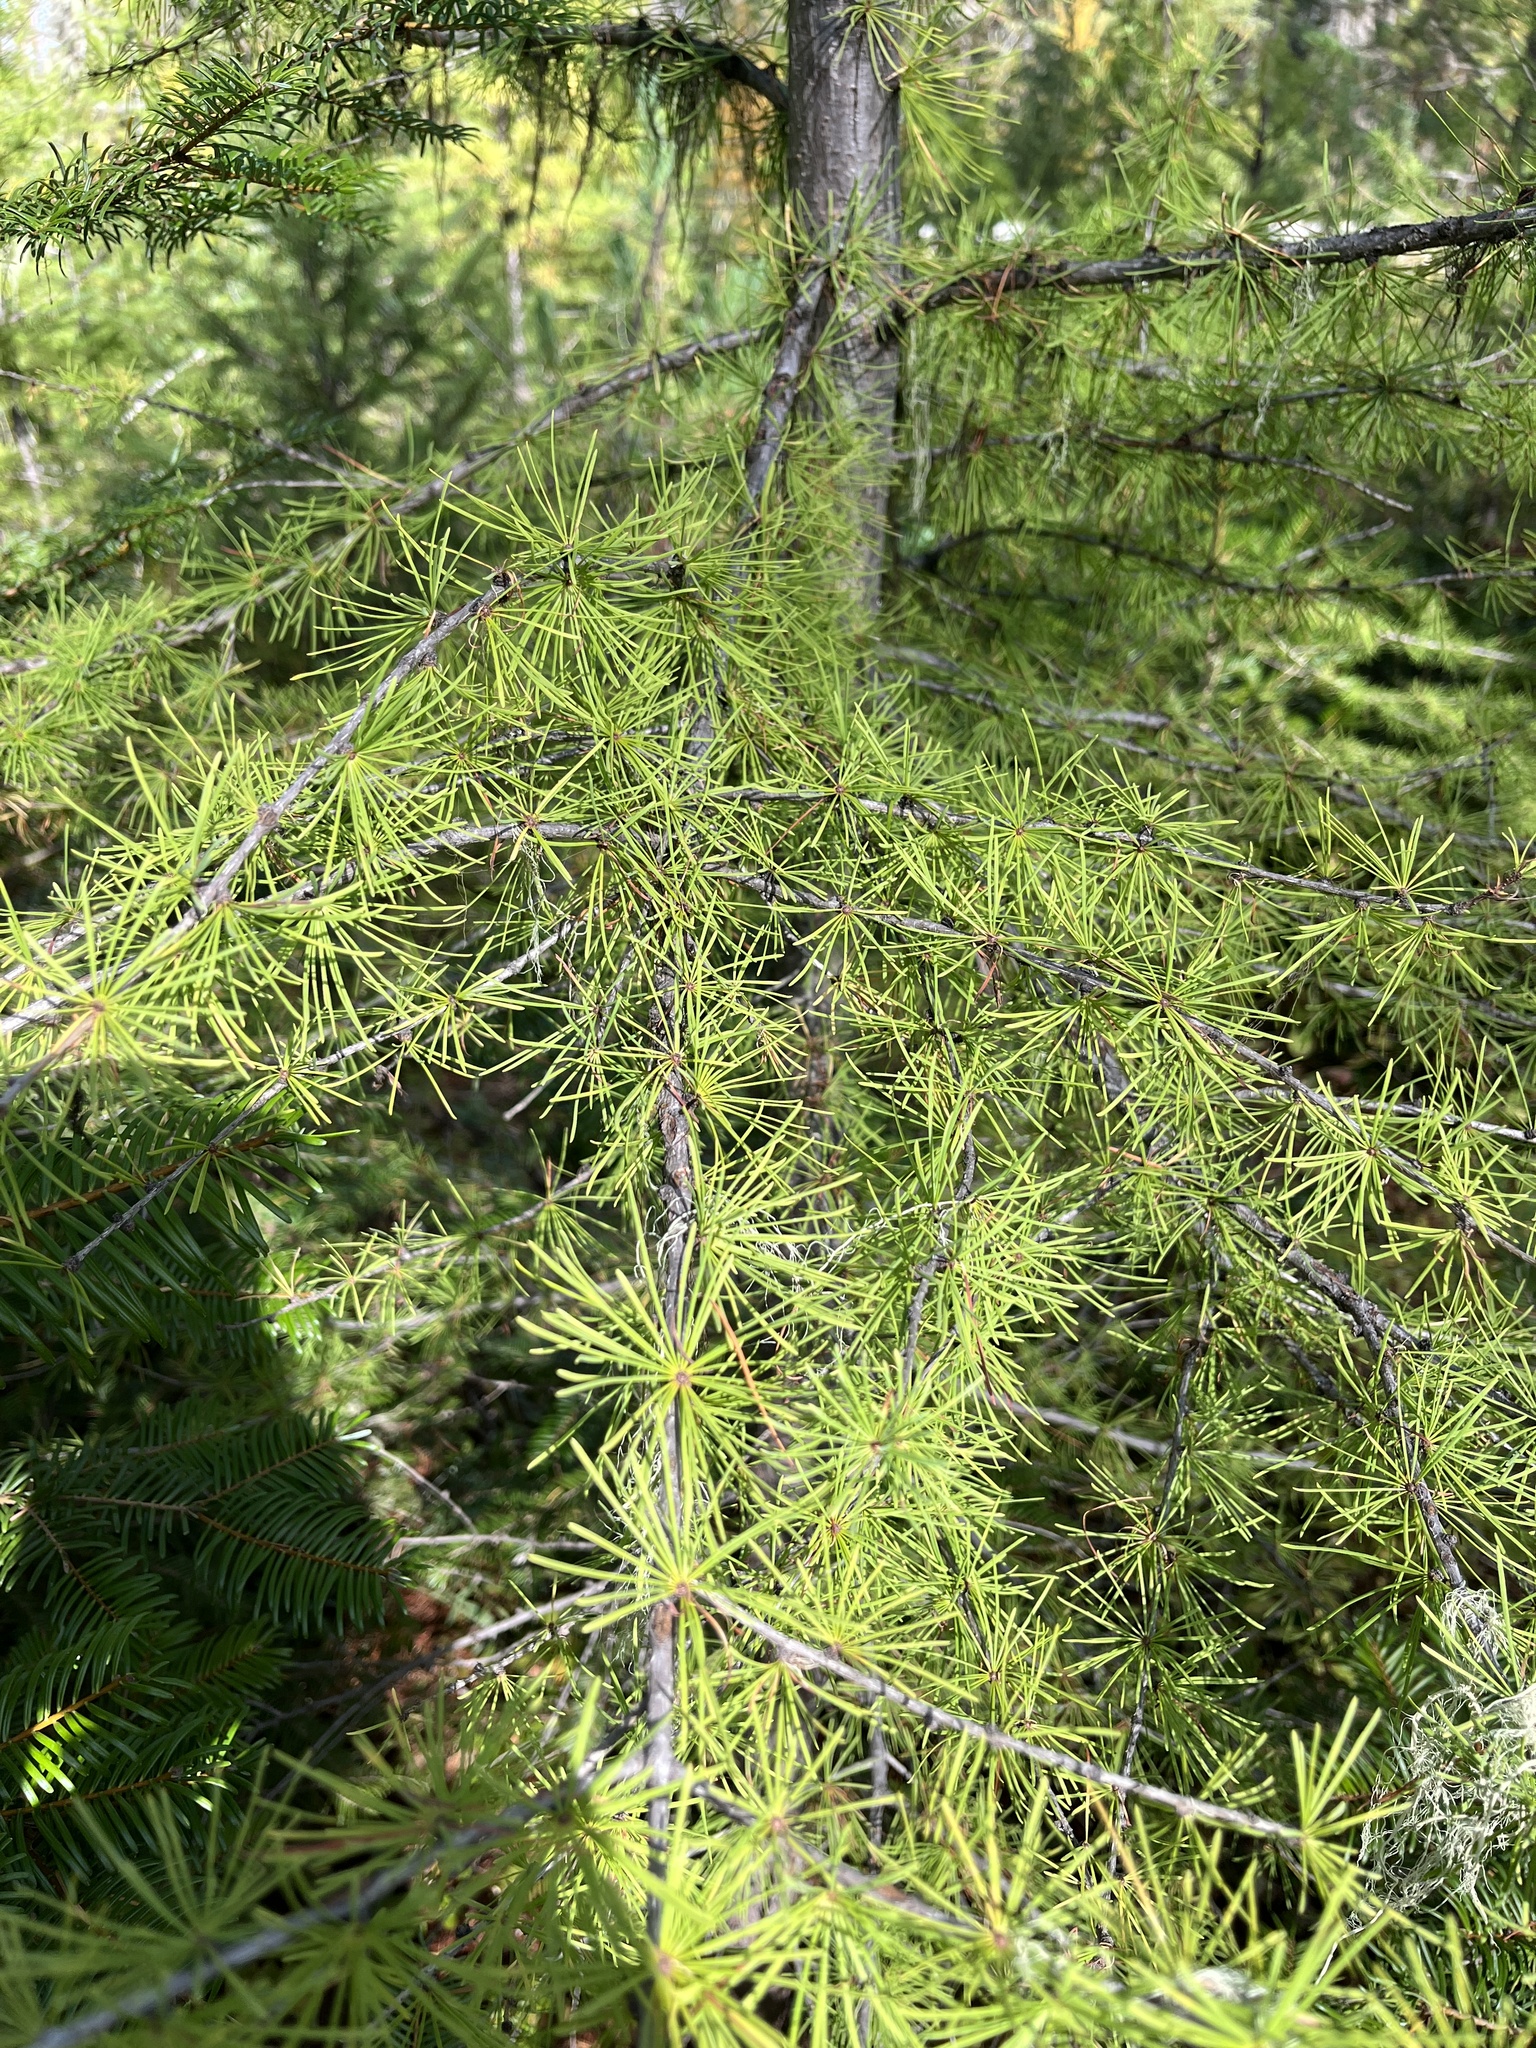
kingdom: Plantae
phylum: Tracheophyta
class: Pinopsida
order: Pinales
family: Pinaceae
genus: Larix
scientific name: Larix occidentalis
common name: Western larch
